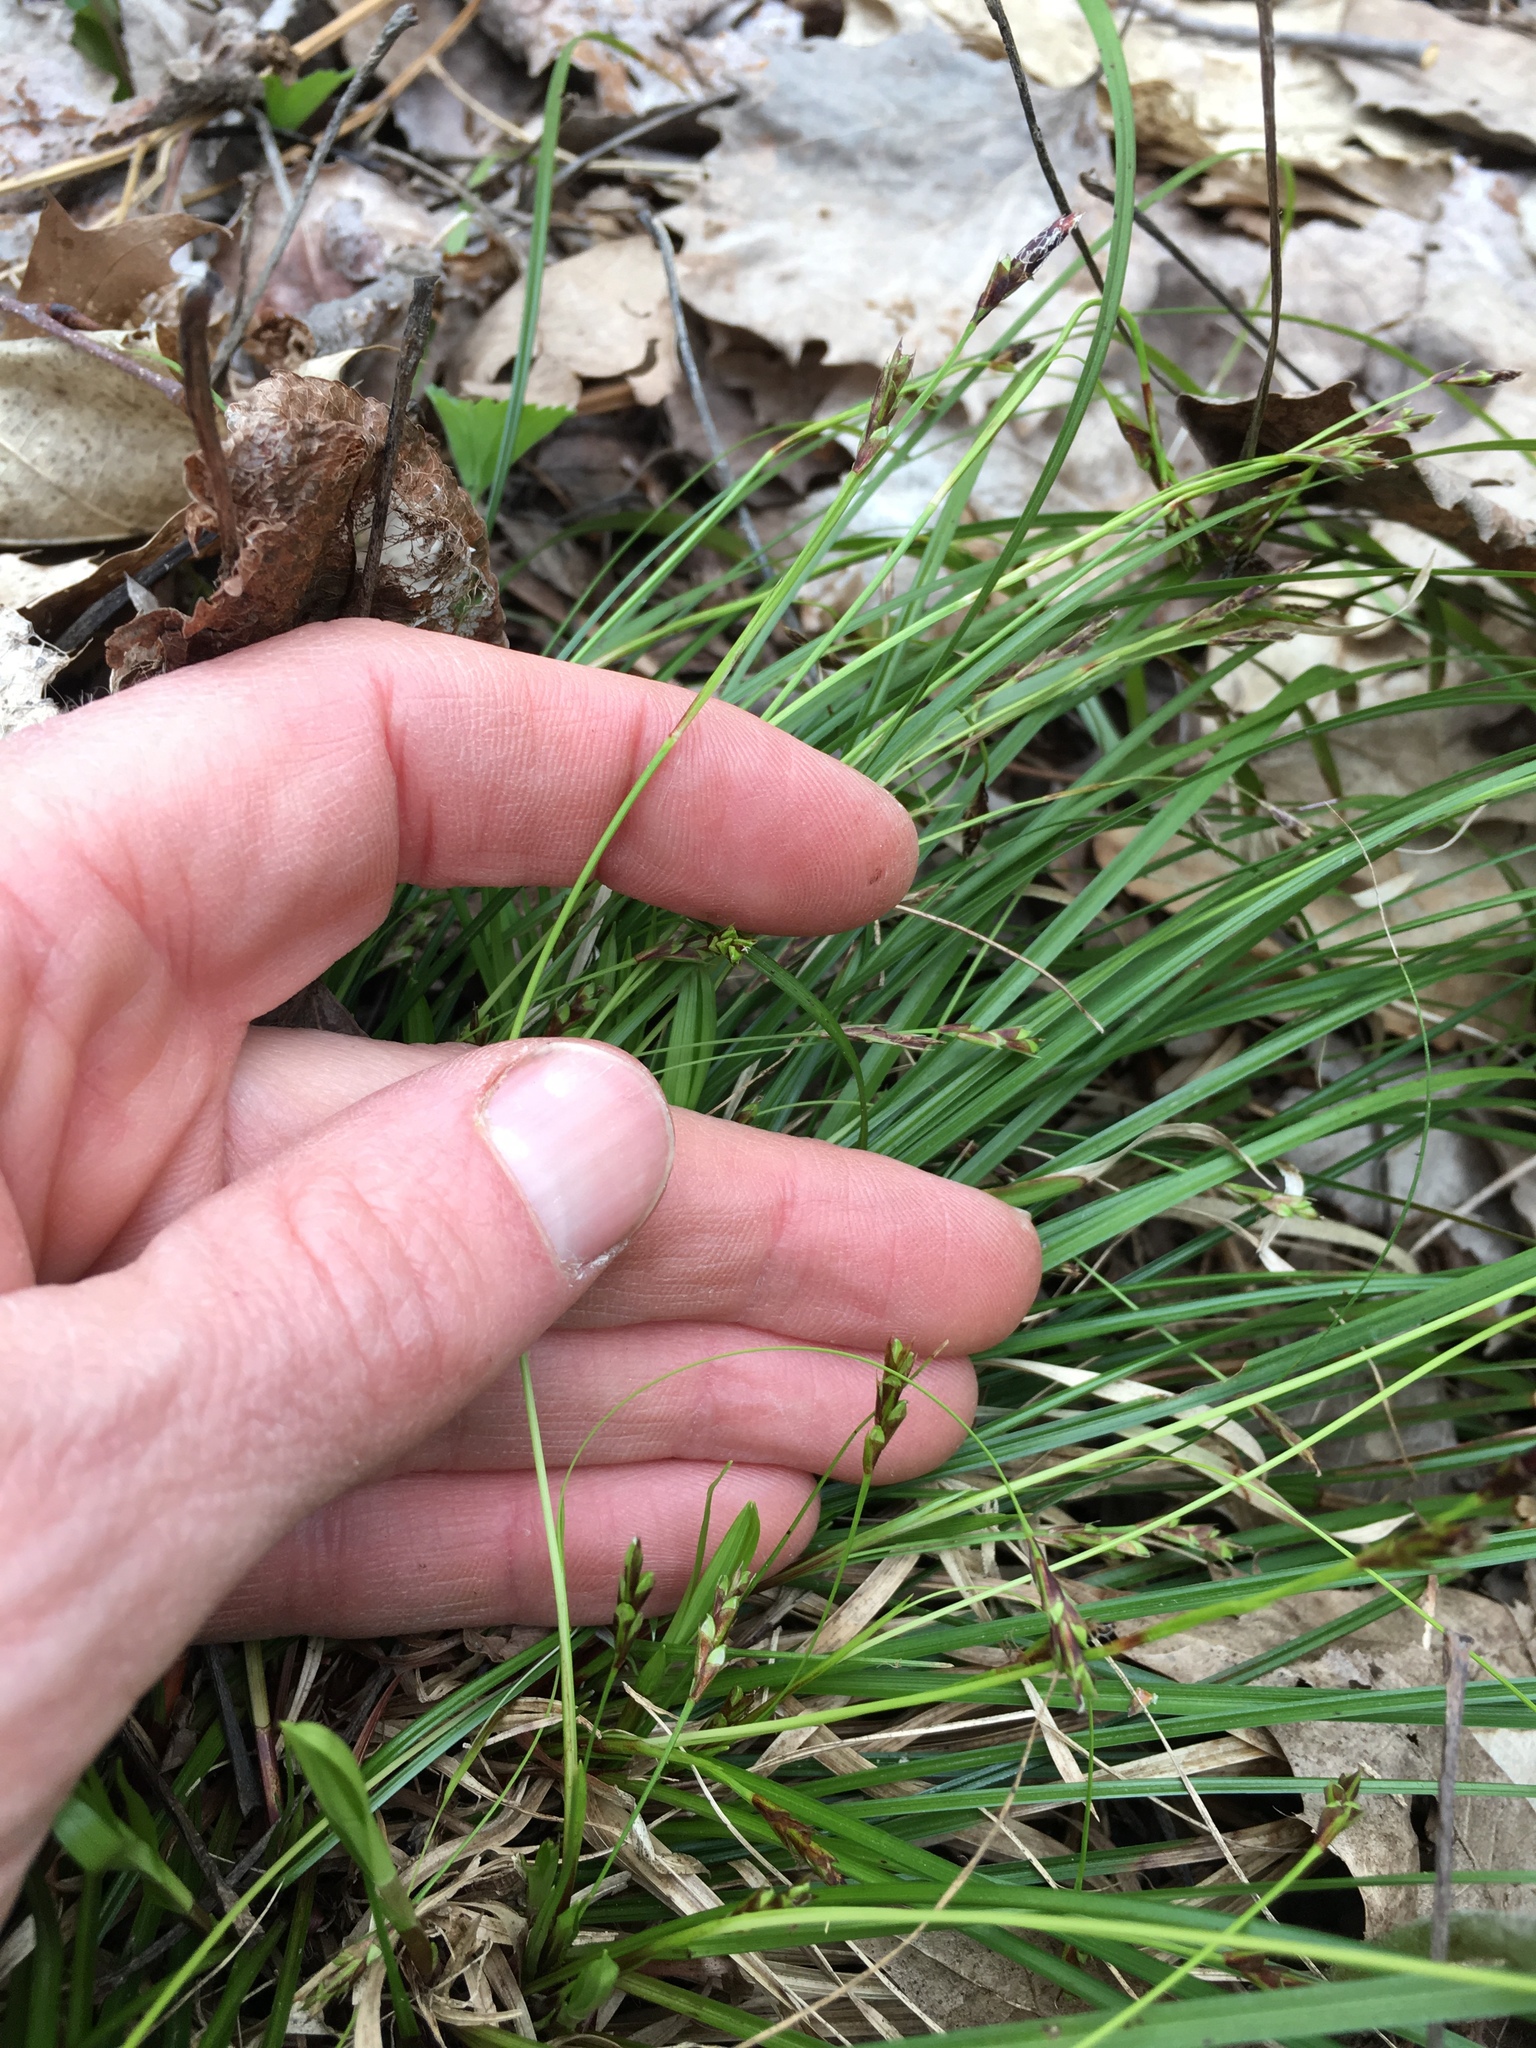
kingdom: Plantae
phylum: Tracheophyta
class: Liliopsida
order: Poales
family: Cyperaceae
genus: Carex
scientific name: Carex pedunculata
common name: Pedunculate sedge
